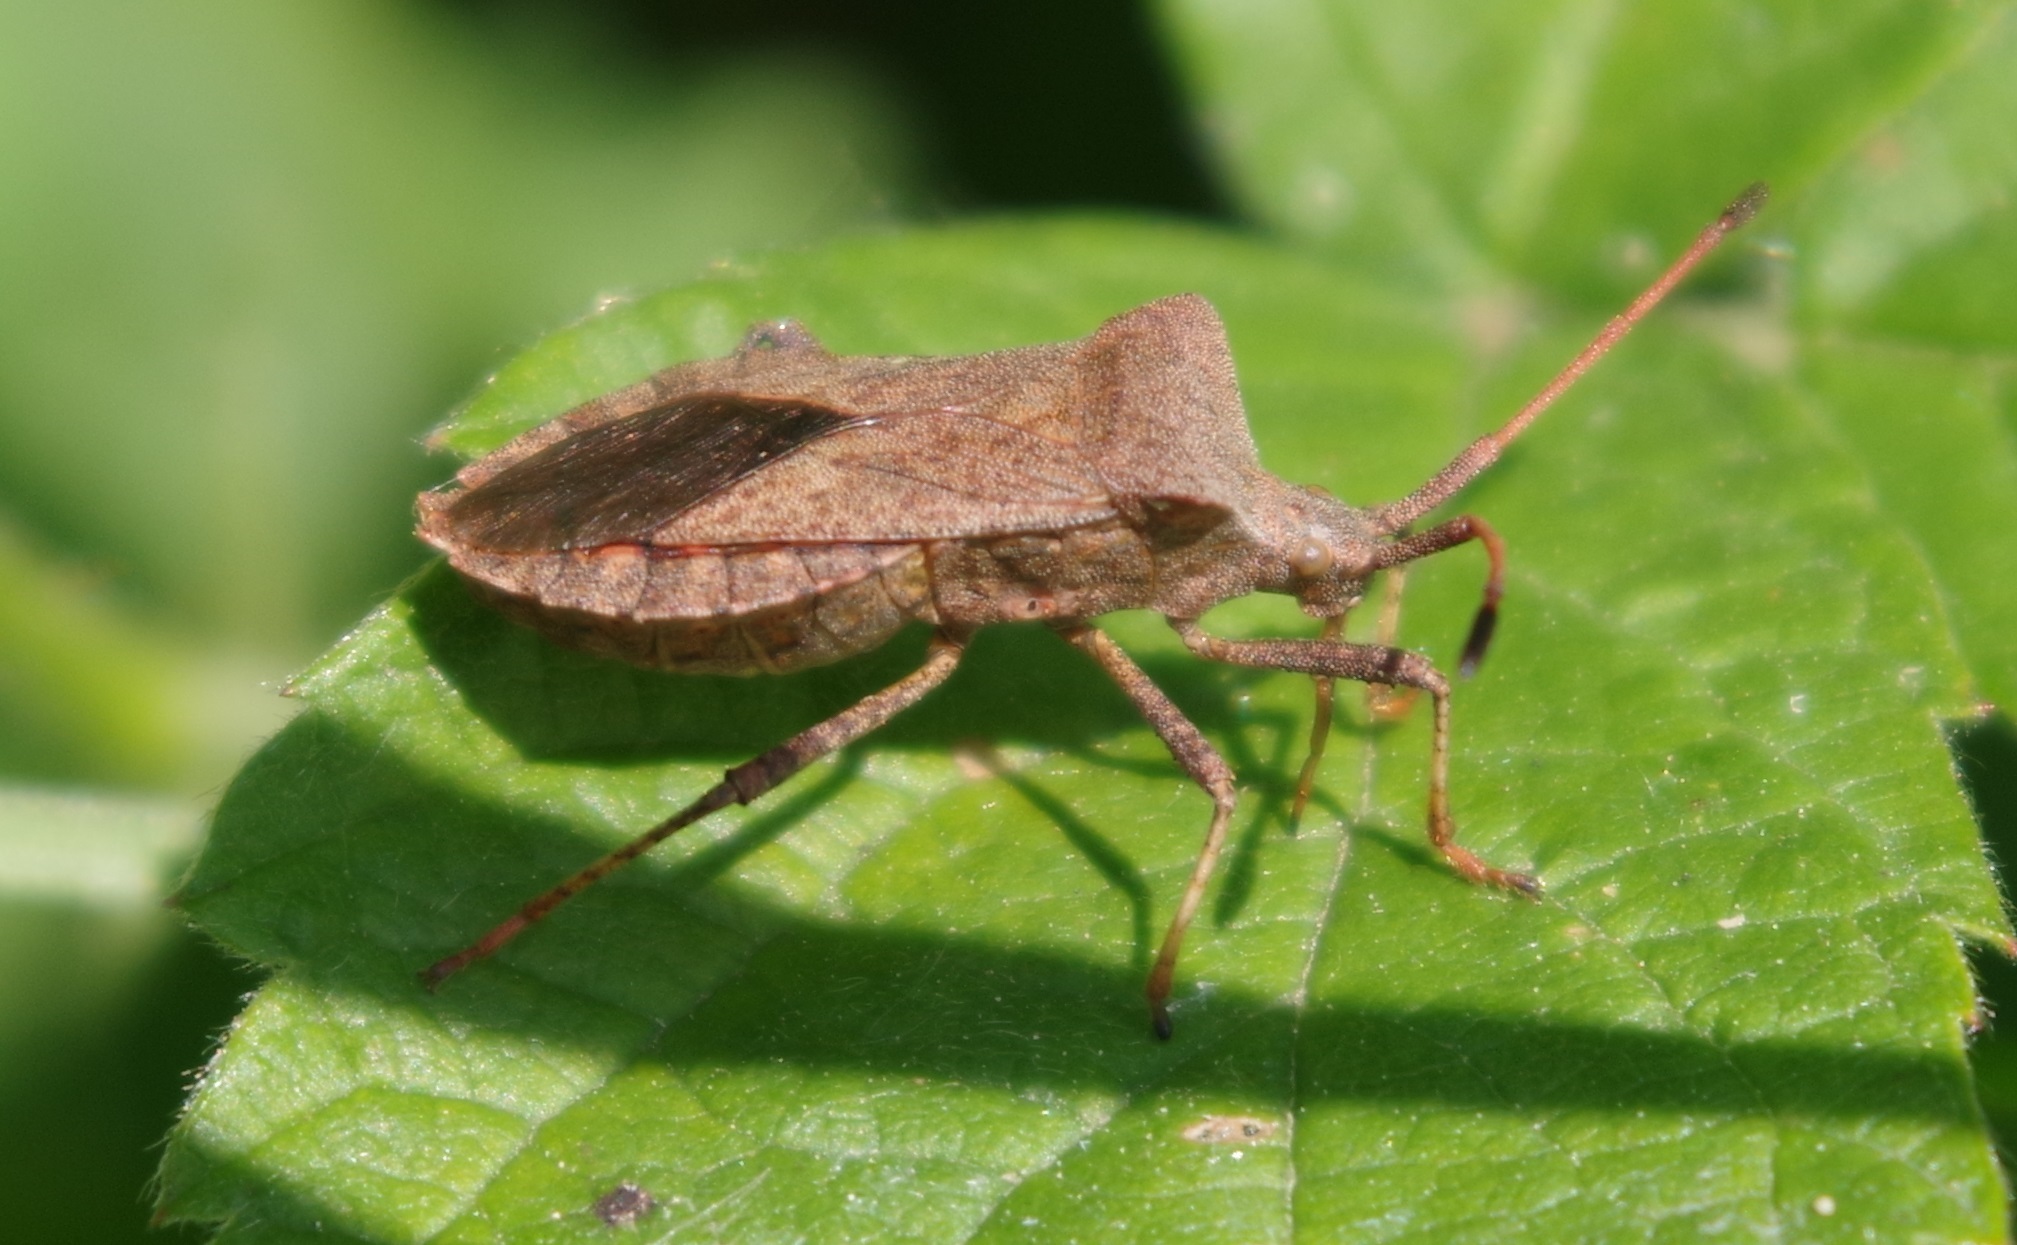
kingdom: Animalia
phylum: Arthropoda
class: Insecta
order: Hemiptera
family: Coreidae
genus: Coreus
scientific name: Coreus marginatus
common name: Dock bug
